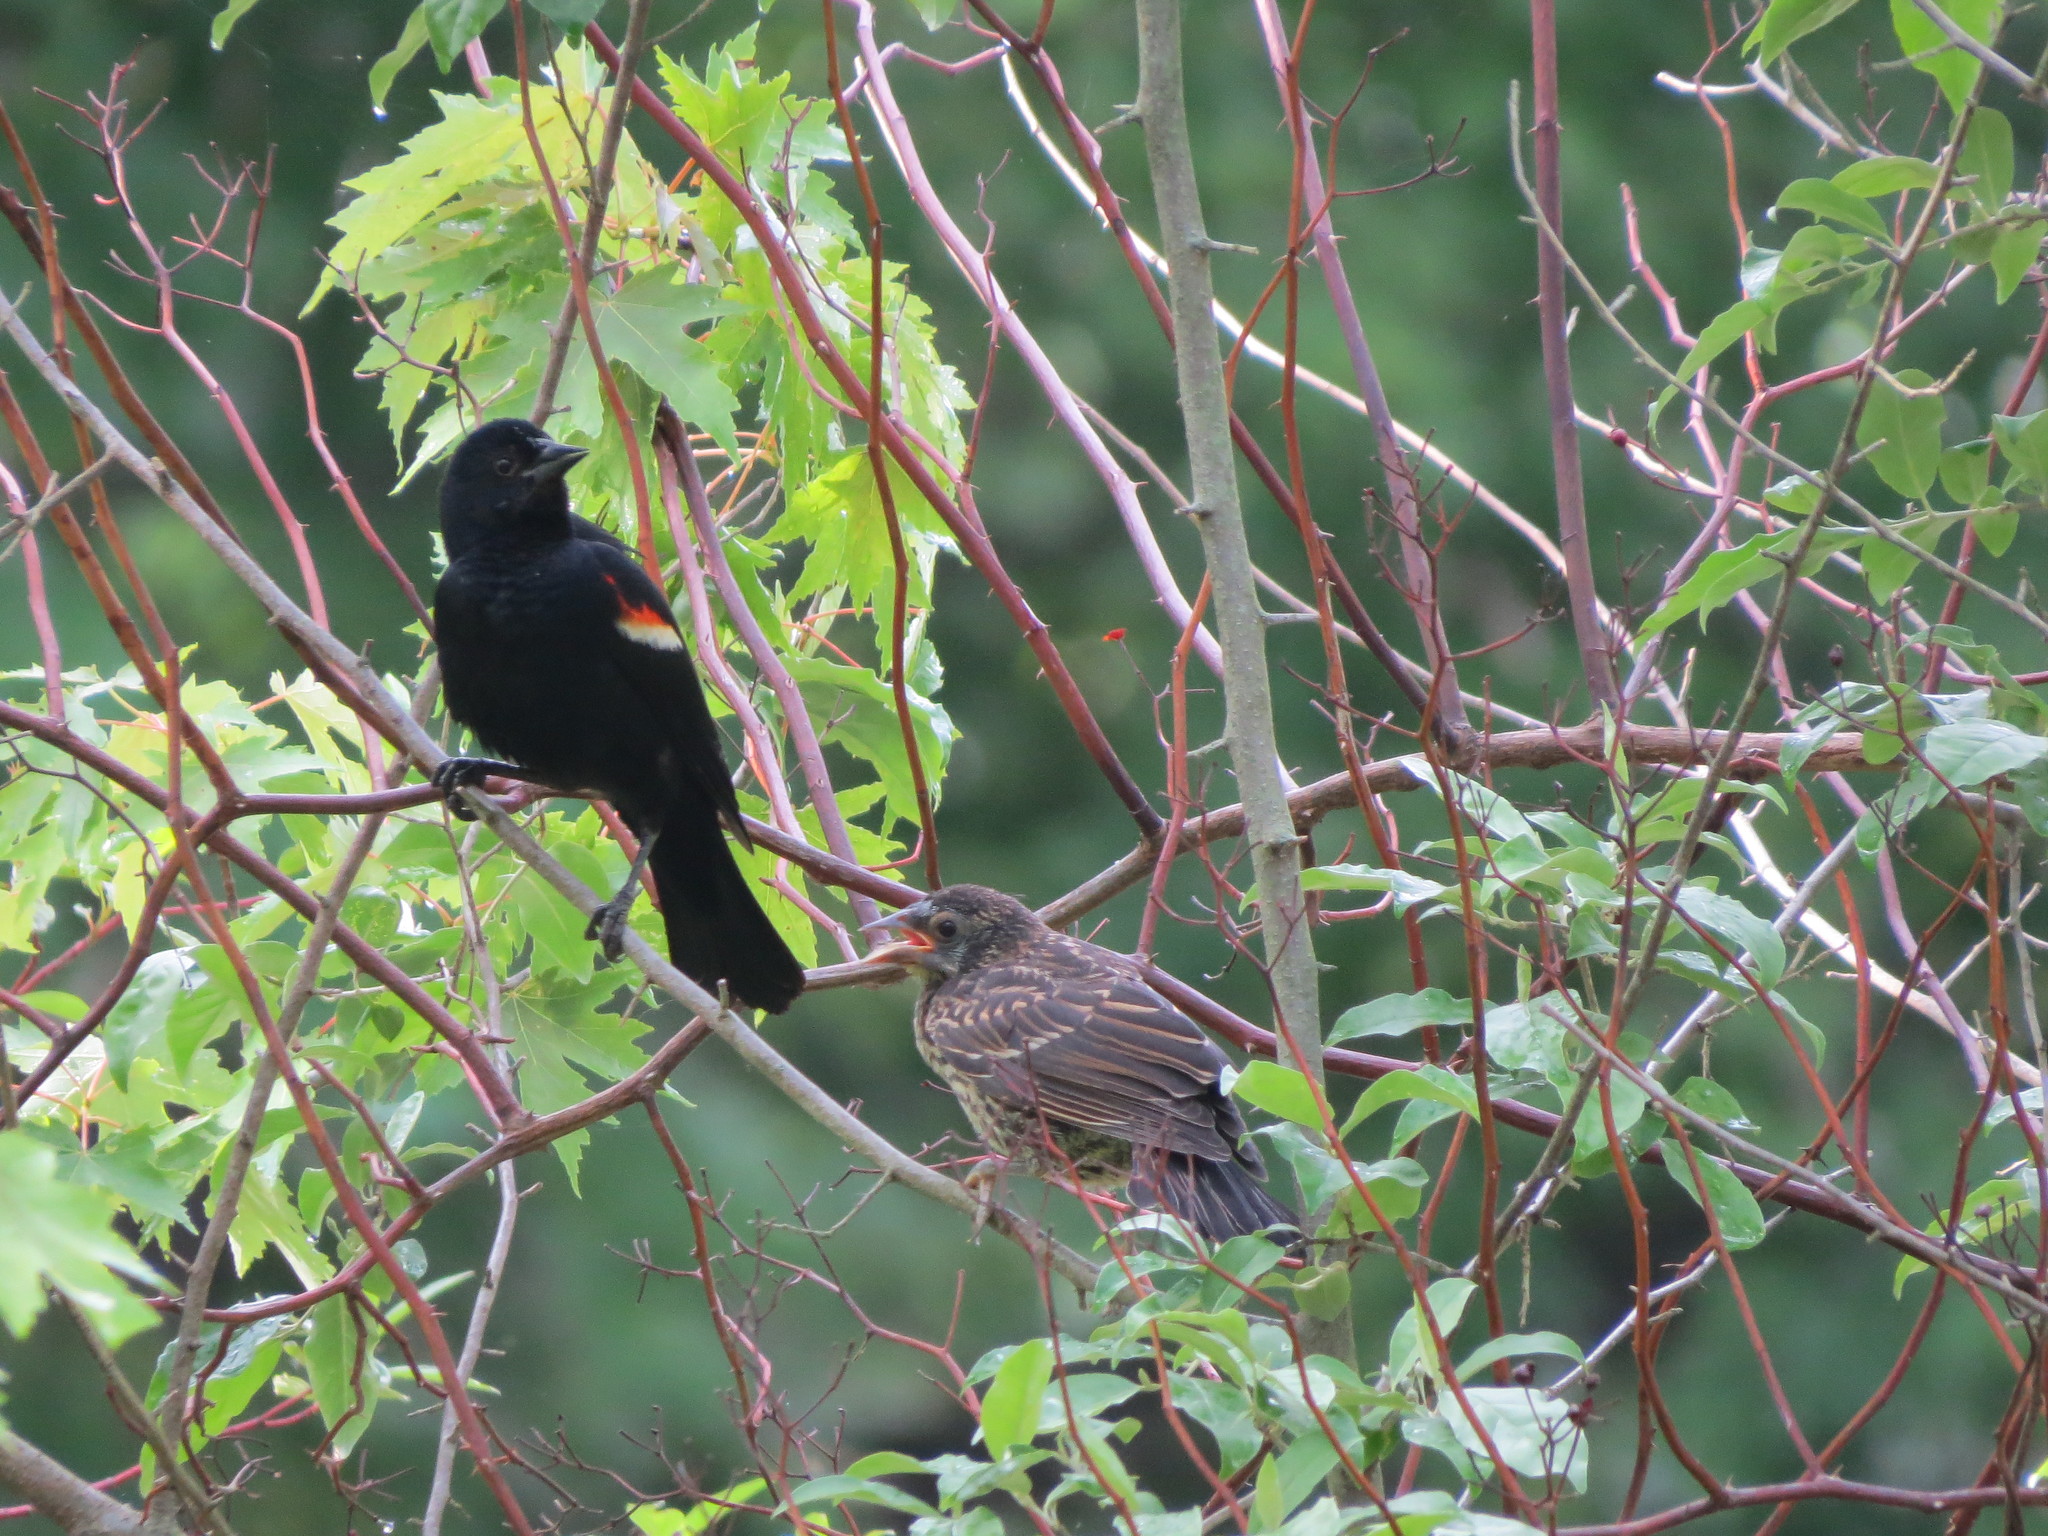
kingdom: Animalia
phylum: Chordata
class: Aves
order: Passeriformes
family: Icteridae
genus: Agelaius
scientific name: Agelaius phoeniceus
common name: Red-winged blackbird
